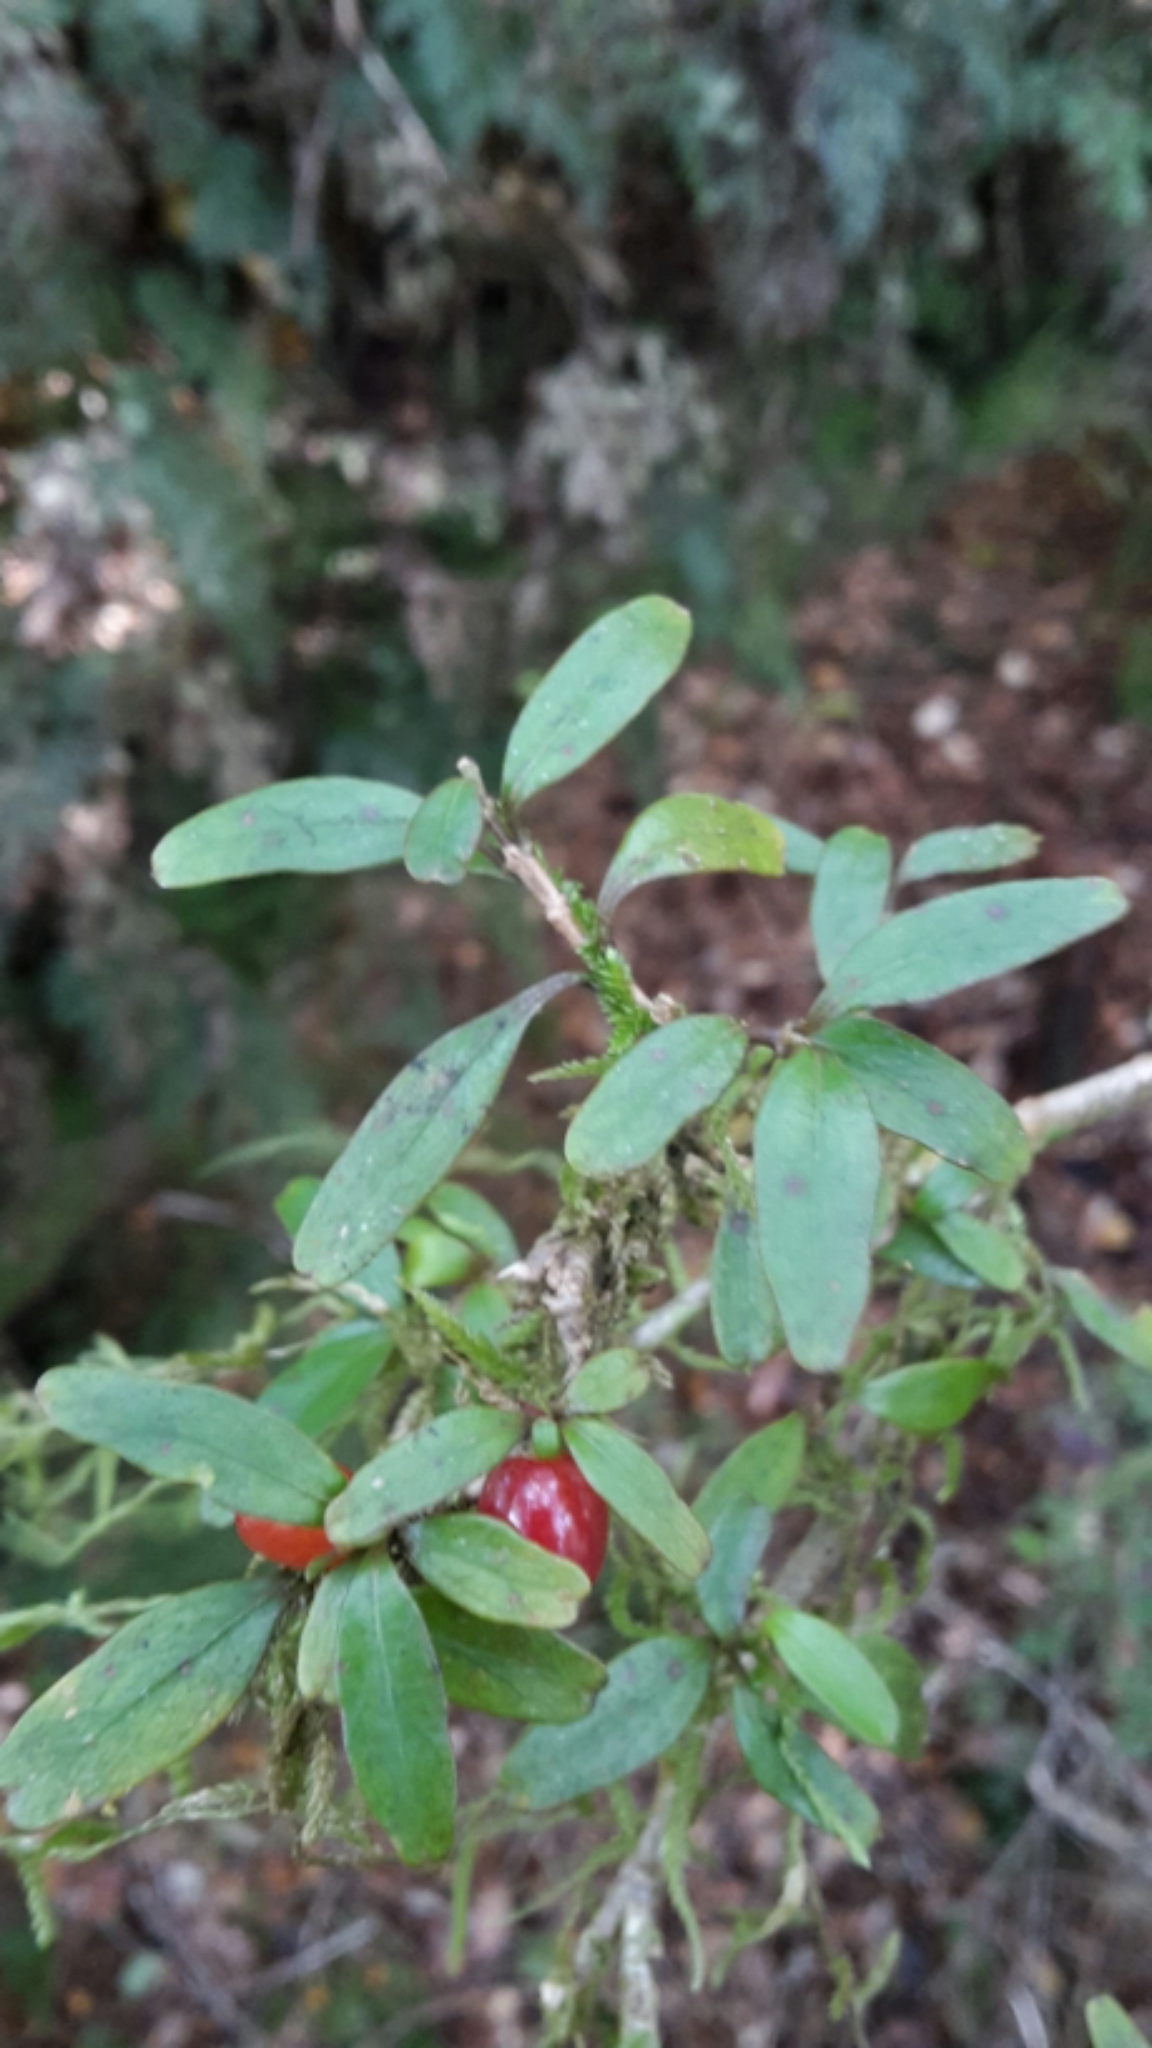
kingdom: Plantae
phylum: Tracheophyta
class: Magnoliopsida
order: Gentianales
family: Rubiaceae
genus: Coprosma
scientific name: Coprosma colensoi
